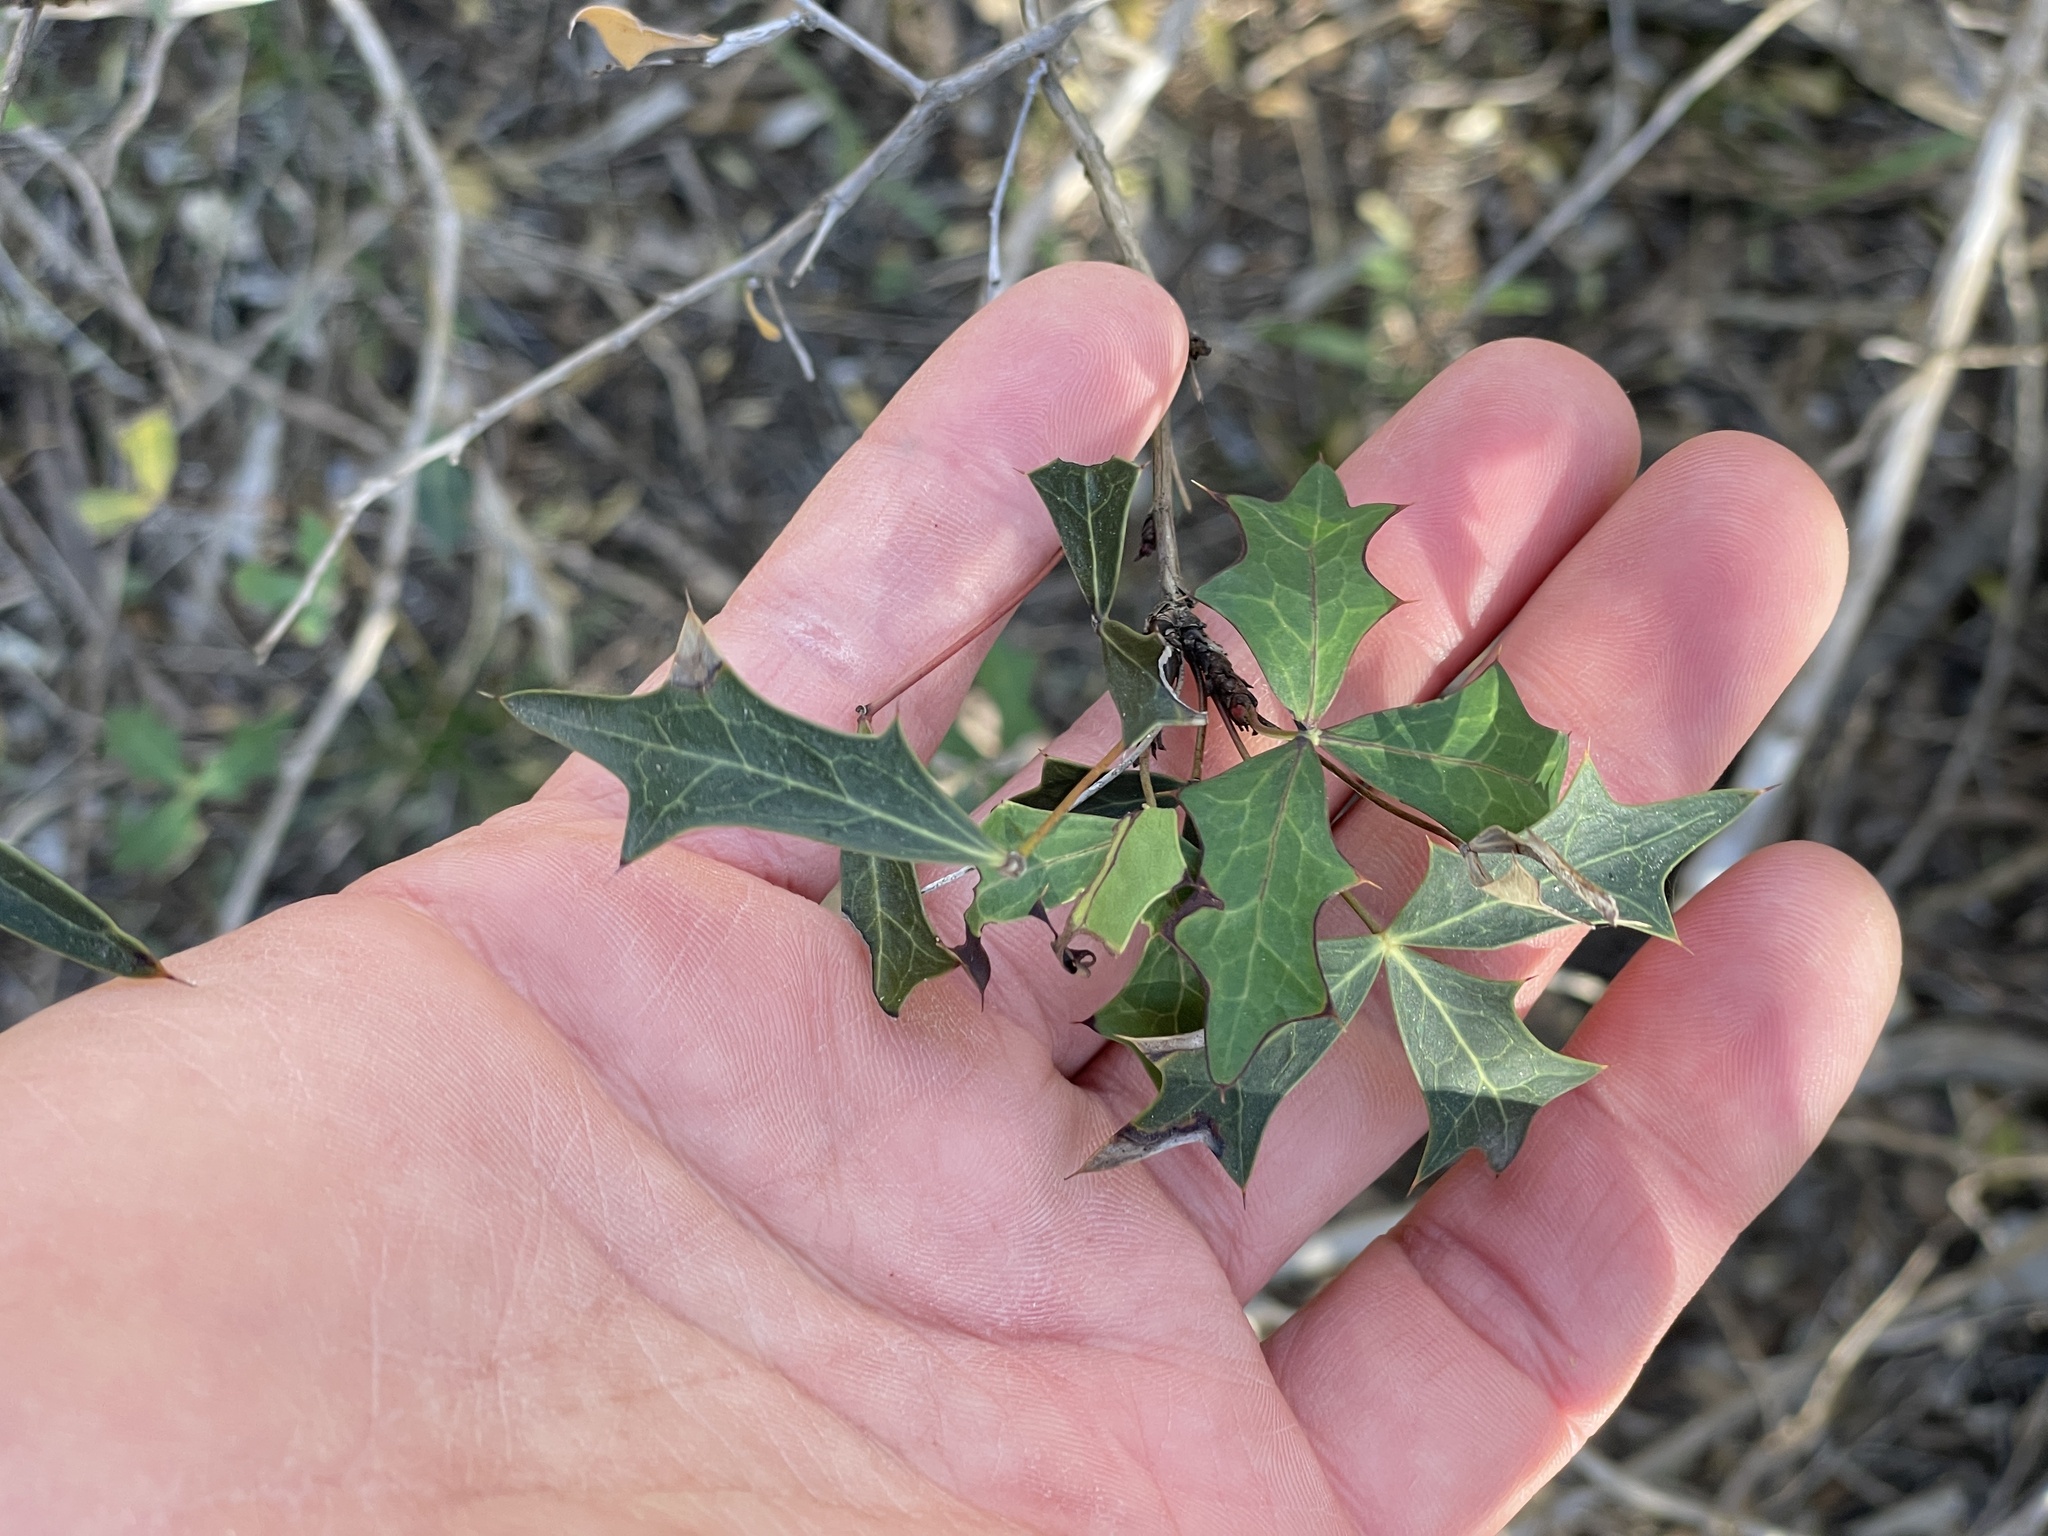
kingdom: Plantae
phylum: Tracheophyta
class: Magnoliopsida
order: Ranunculales
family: Berberidaceae
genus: Alloberberis
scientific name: Alloberberis trifoliolata
